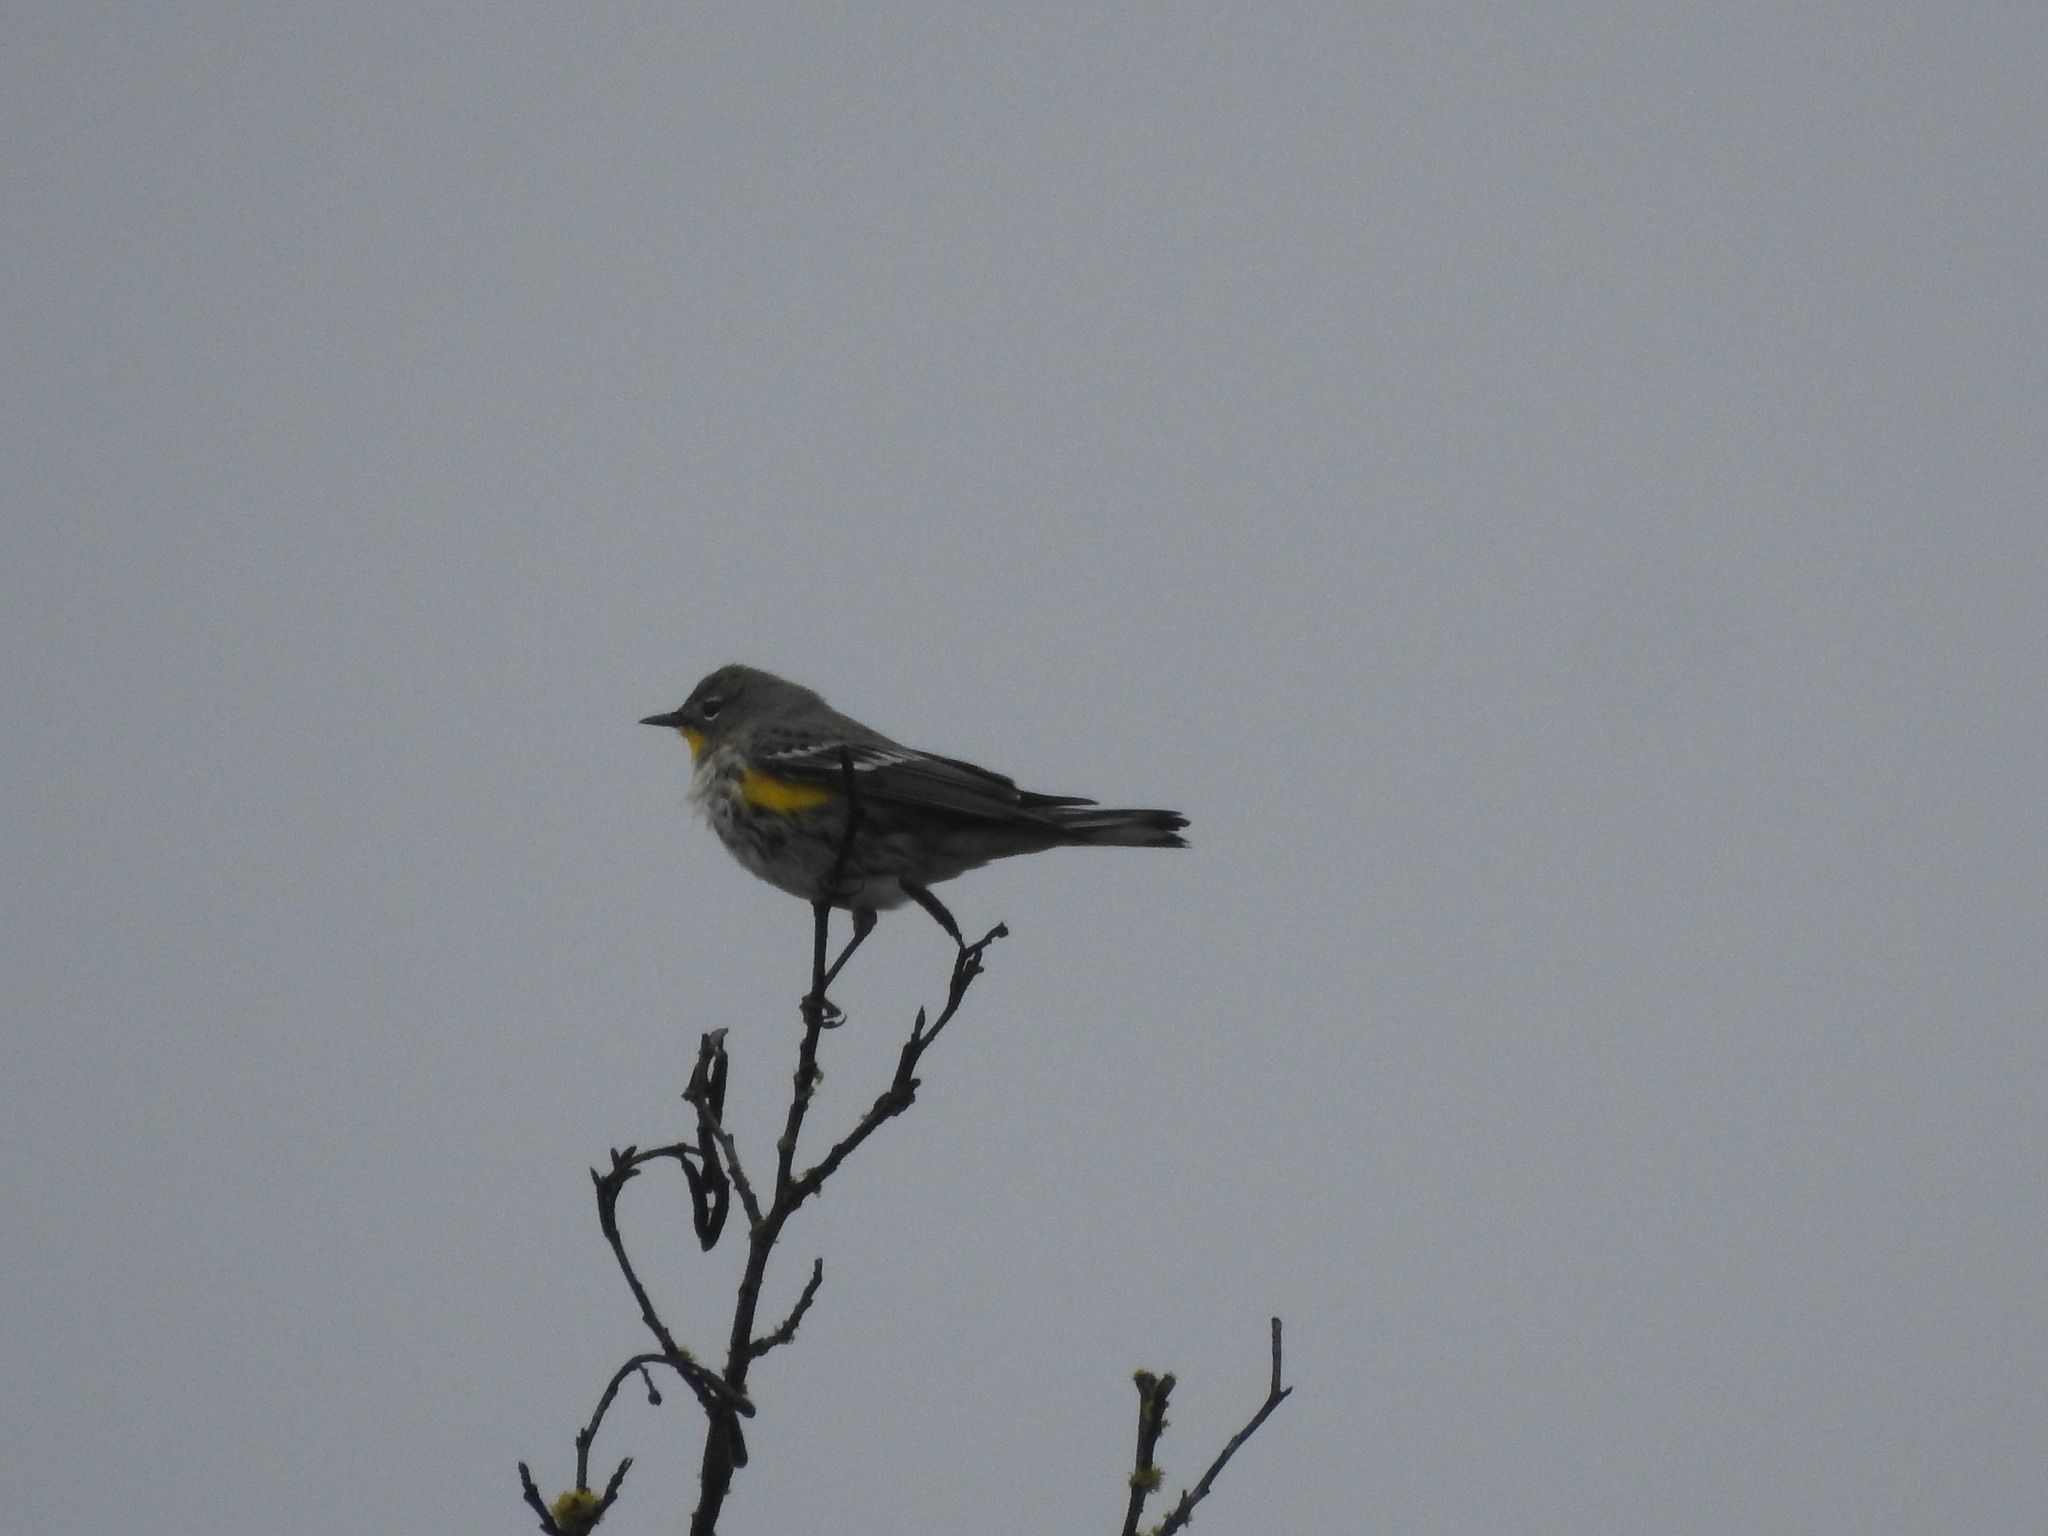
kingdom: Animalia
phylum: Chordata
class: Aves
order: Passeriformes
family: Parulidae
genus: Setophaga
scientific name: Setophaga coronata
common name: Myrtle warbler
